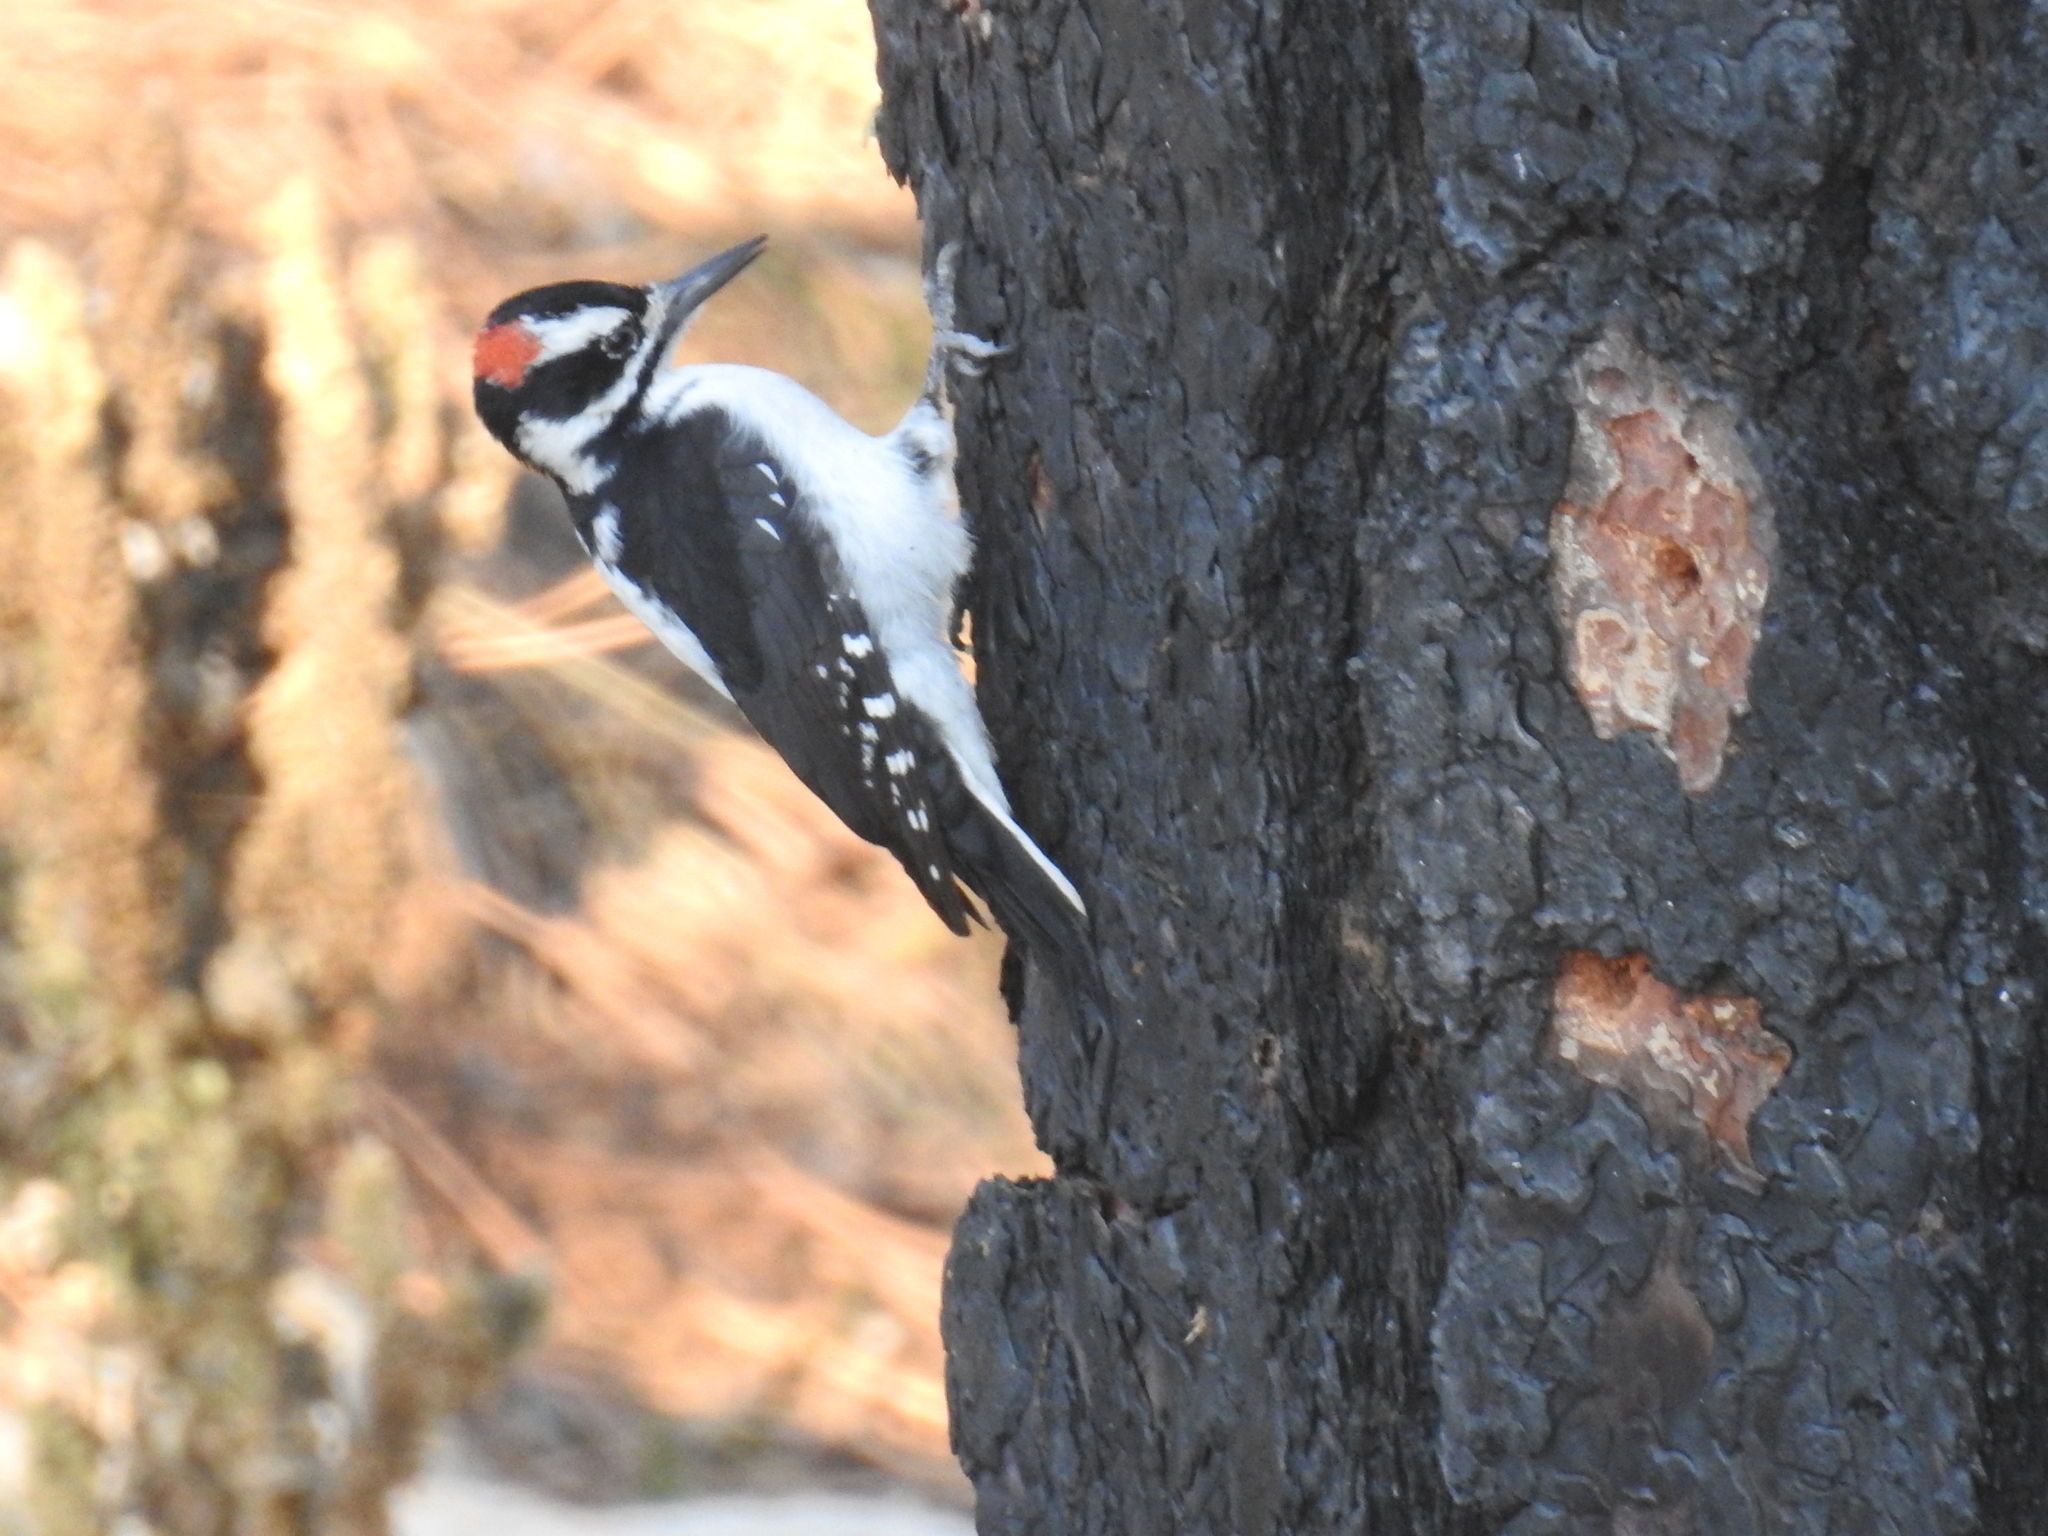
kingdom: Animalia
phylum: Chordata
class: Aves
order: Piciformes
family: Picidae
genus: Leuconotopicus
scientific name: Leuconotopicus villosus
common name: Hairy woodpecker
